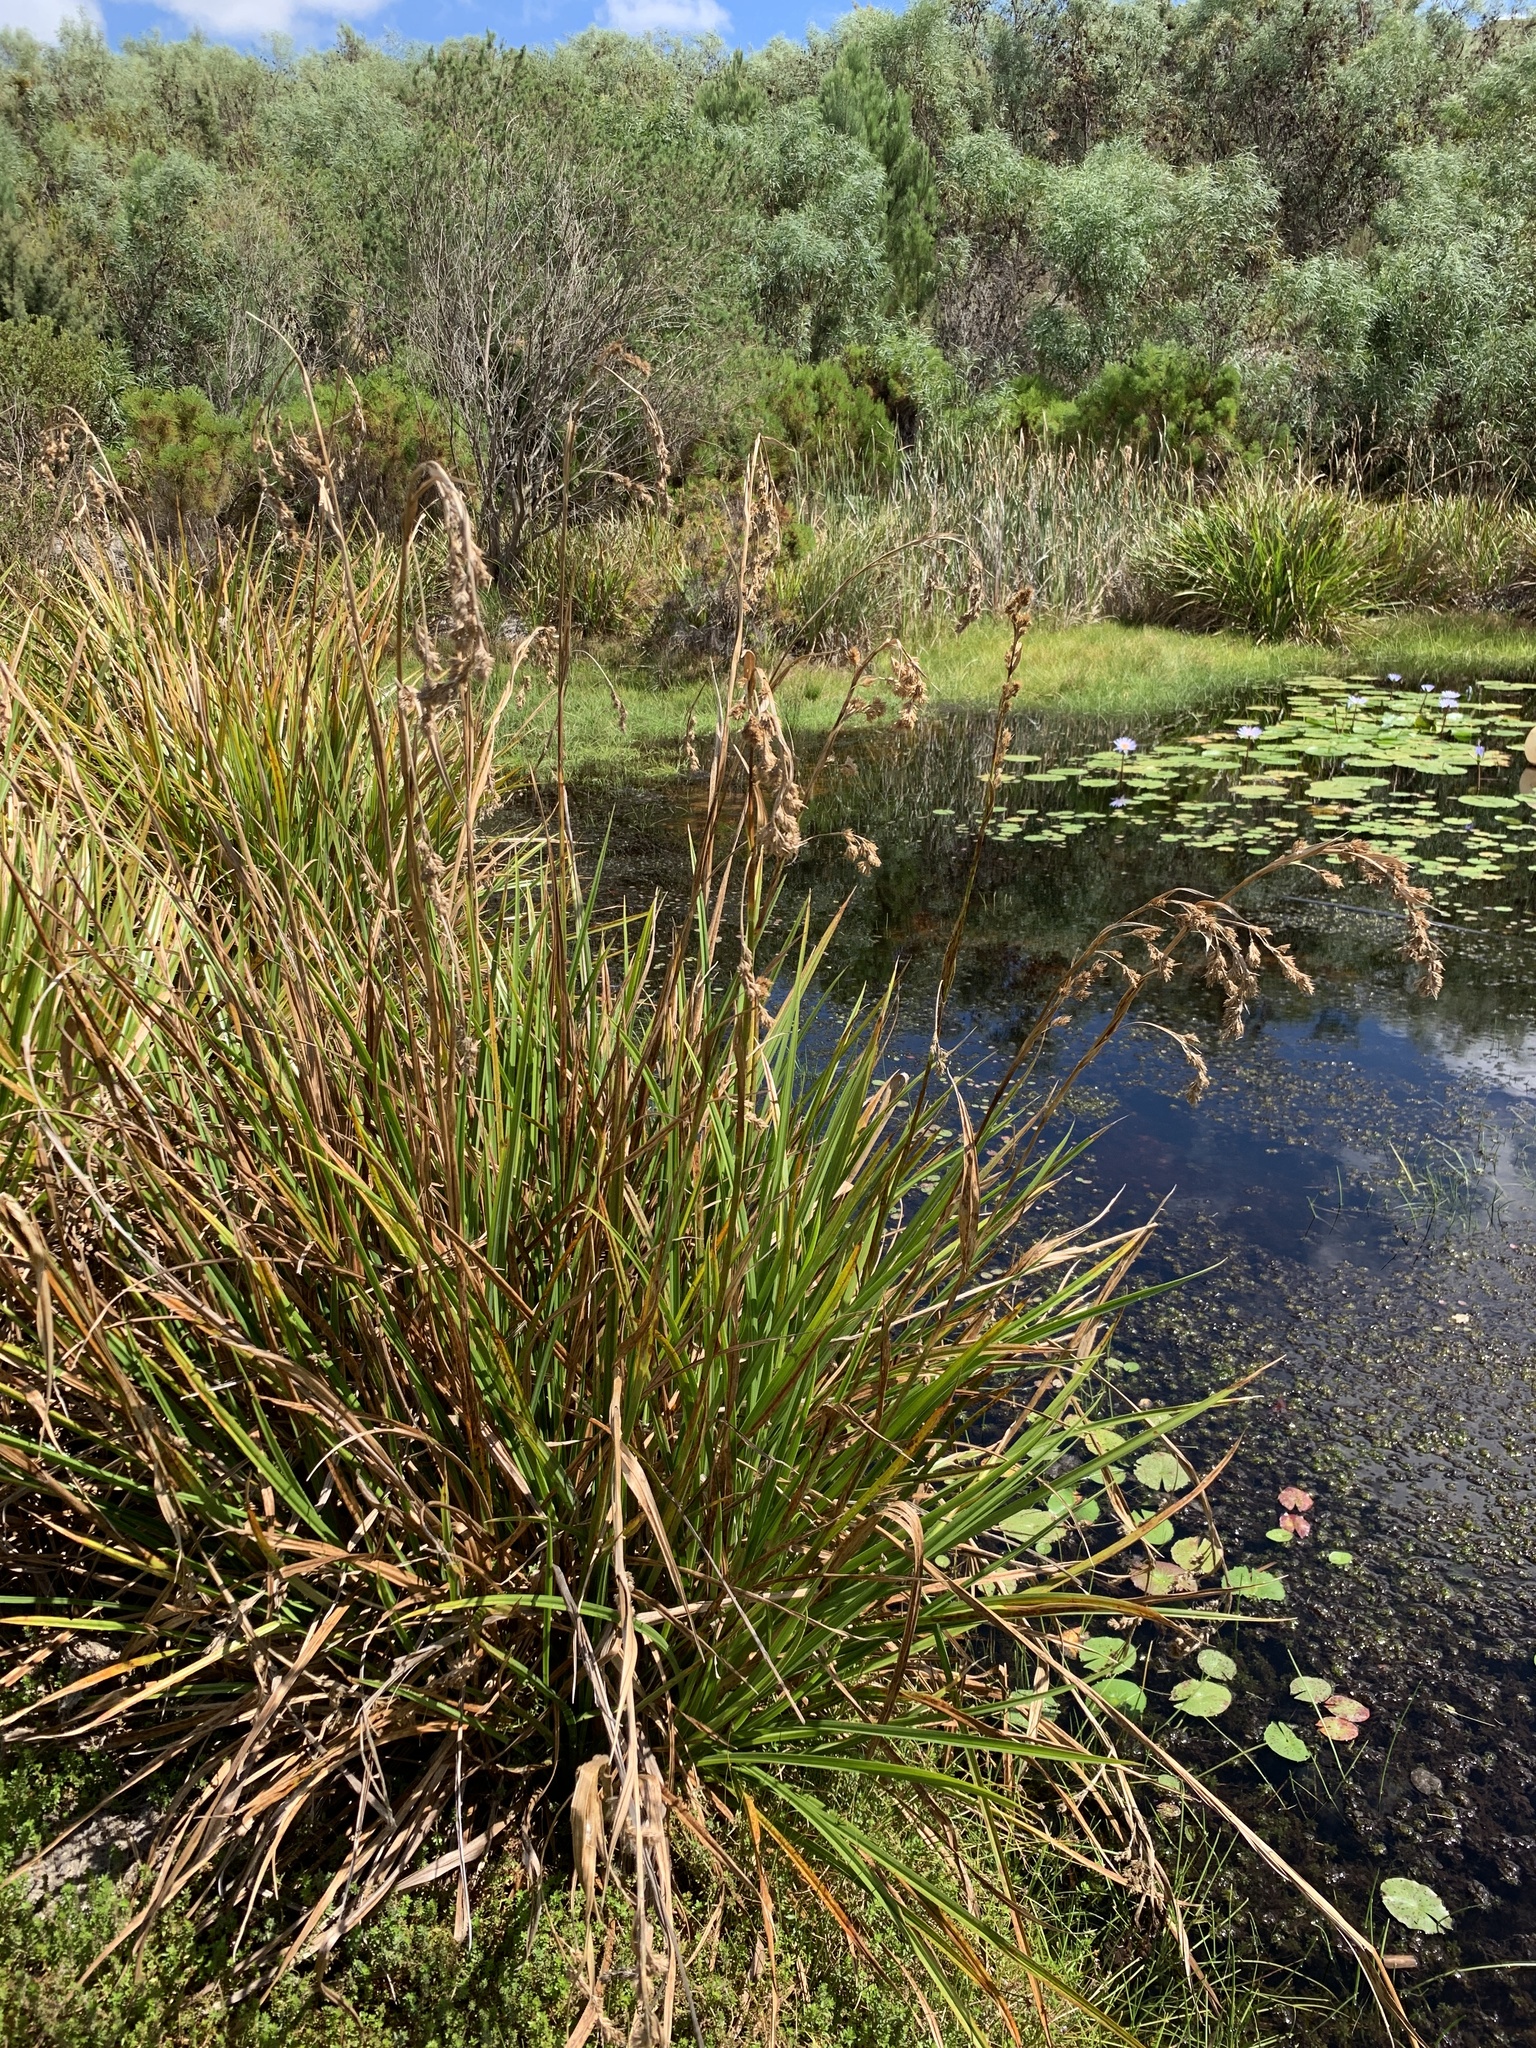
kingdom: Plantae
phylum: Tracheophyta
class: Liliopsida
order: Poales
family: Cyperaceae
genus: Carpha
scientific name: Carpha glomerata
